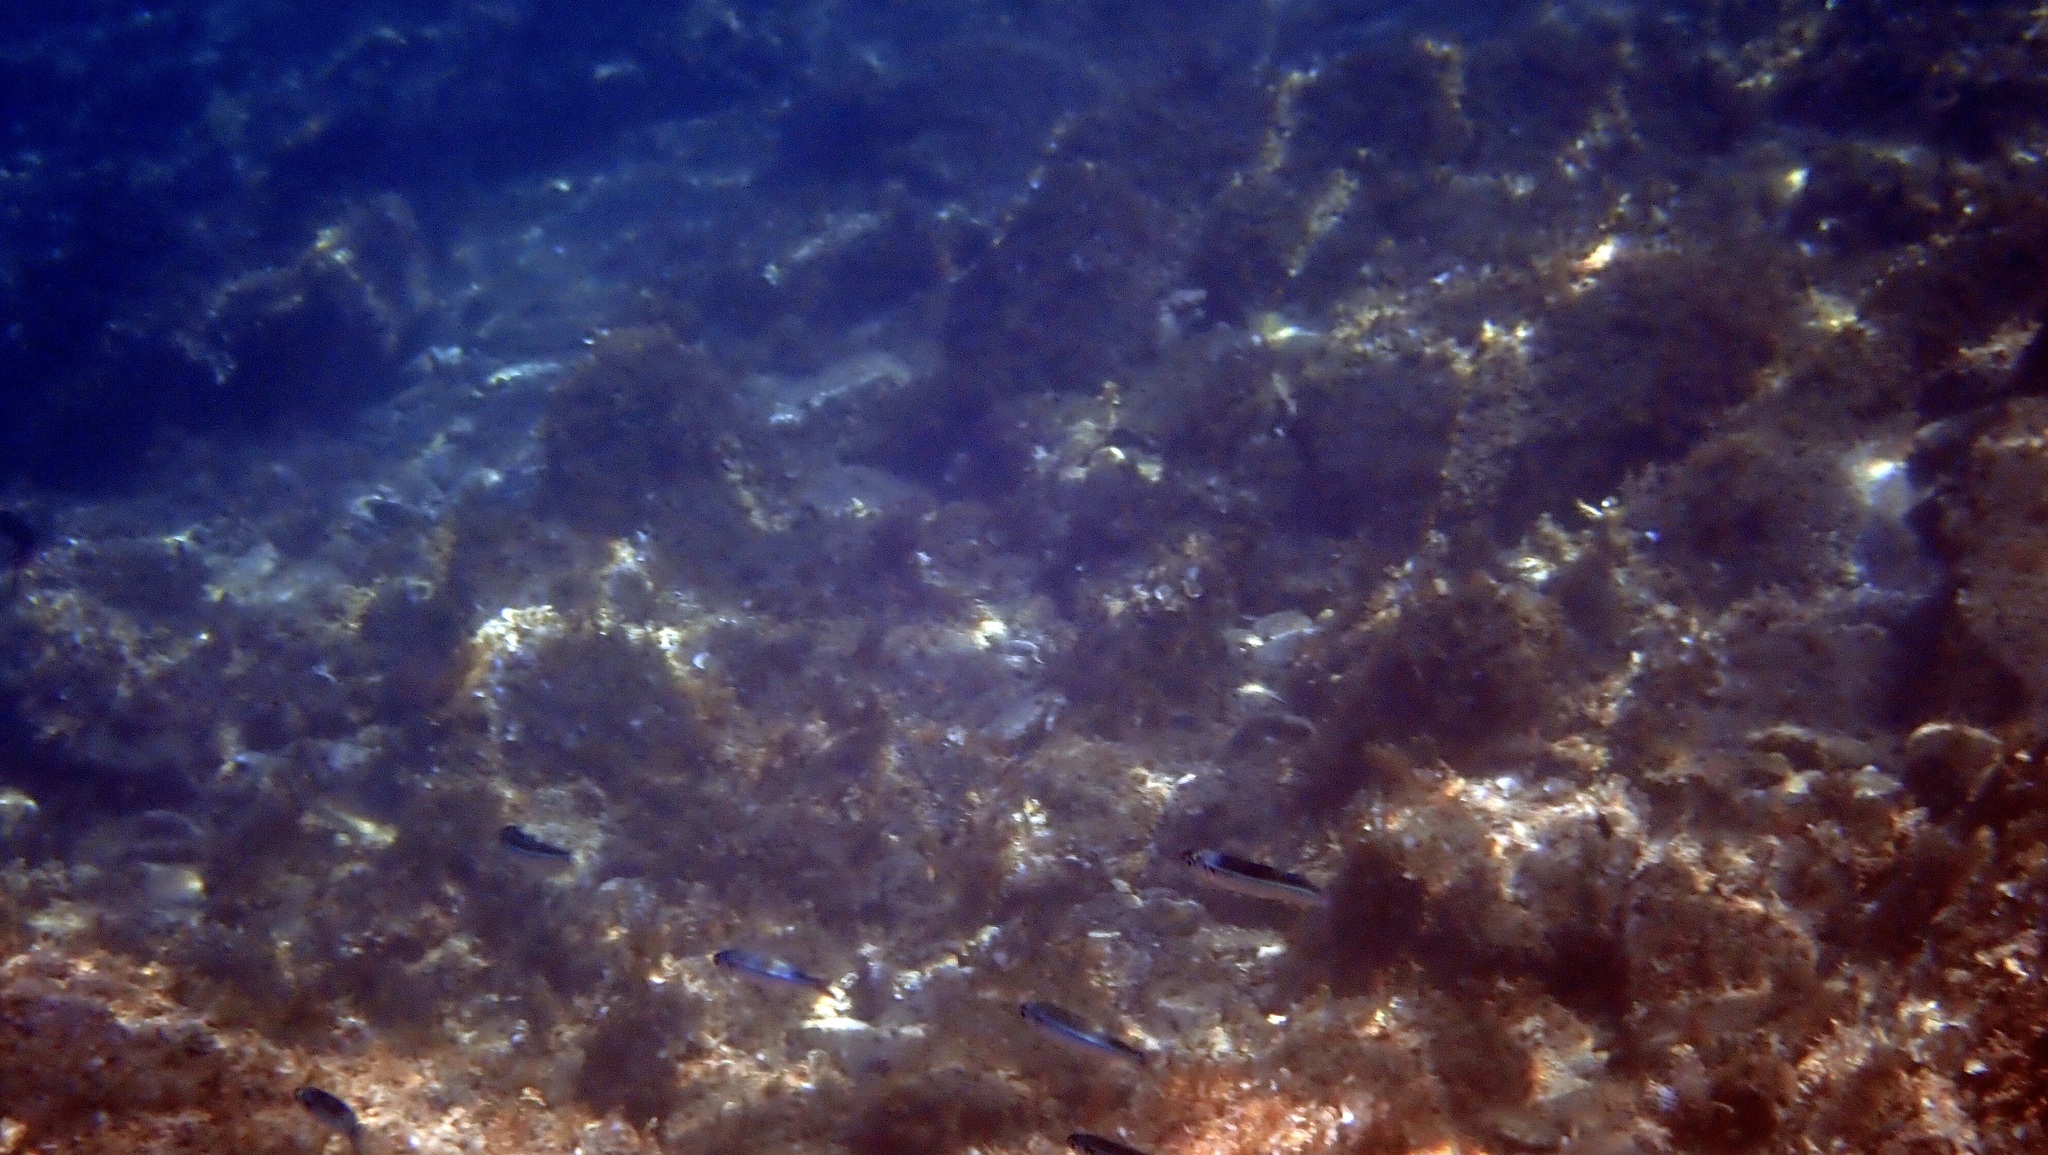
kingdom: Animalia
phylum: Chordata
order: Perciformes
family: Pomacentridae
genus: Chromis
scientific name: Chromis chromis
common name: Damselfish
